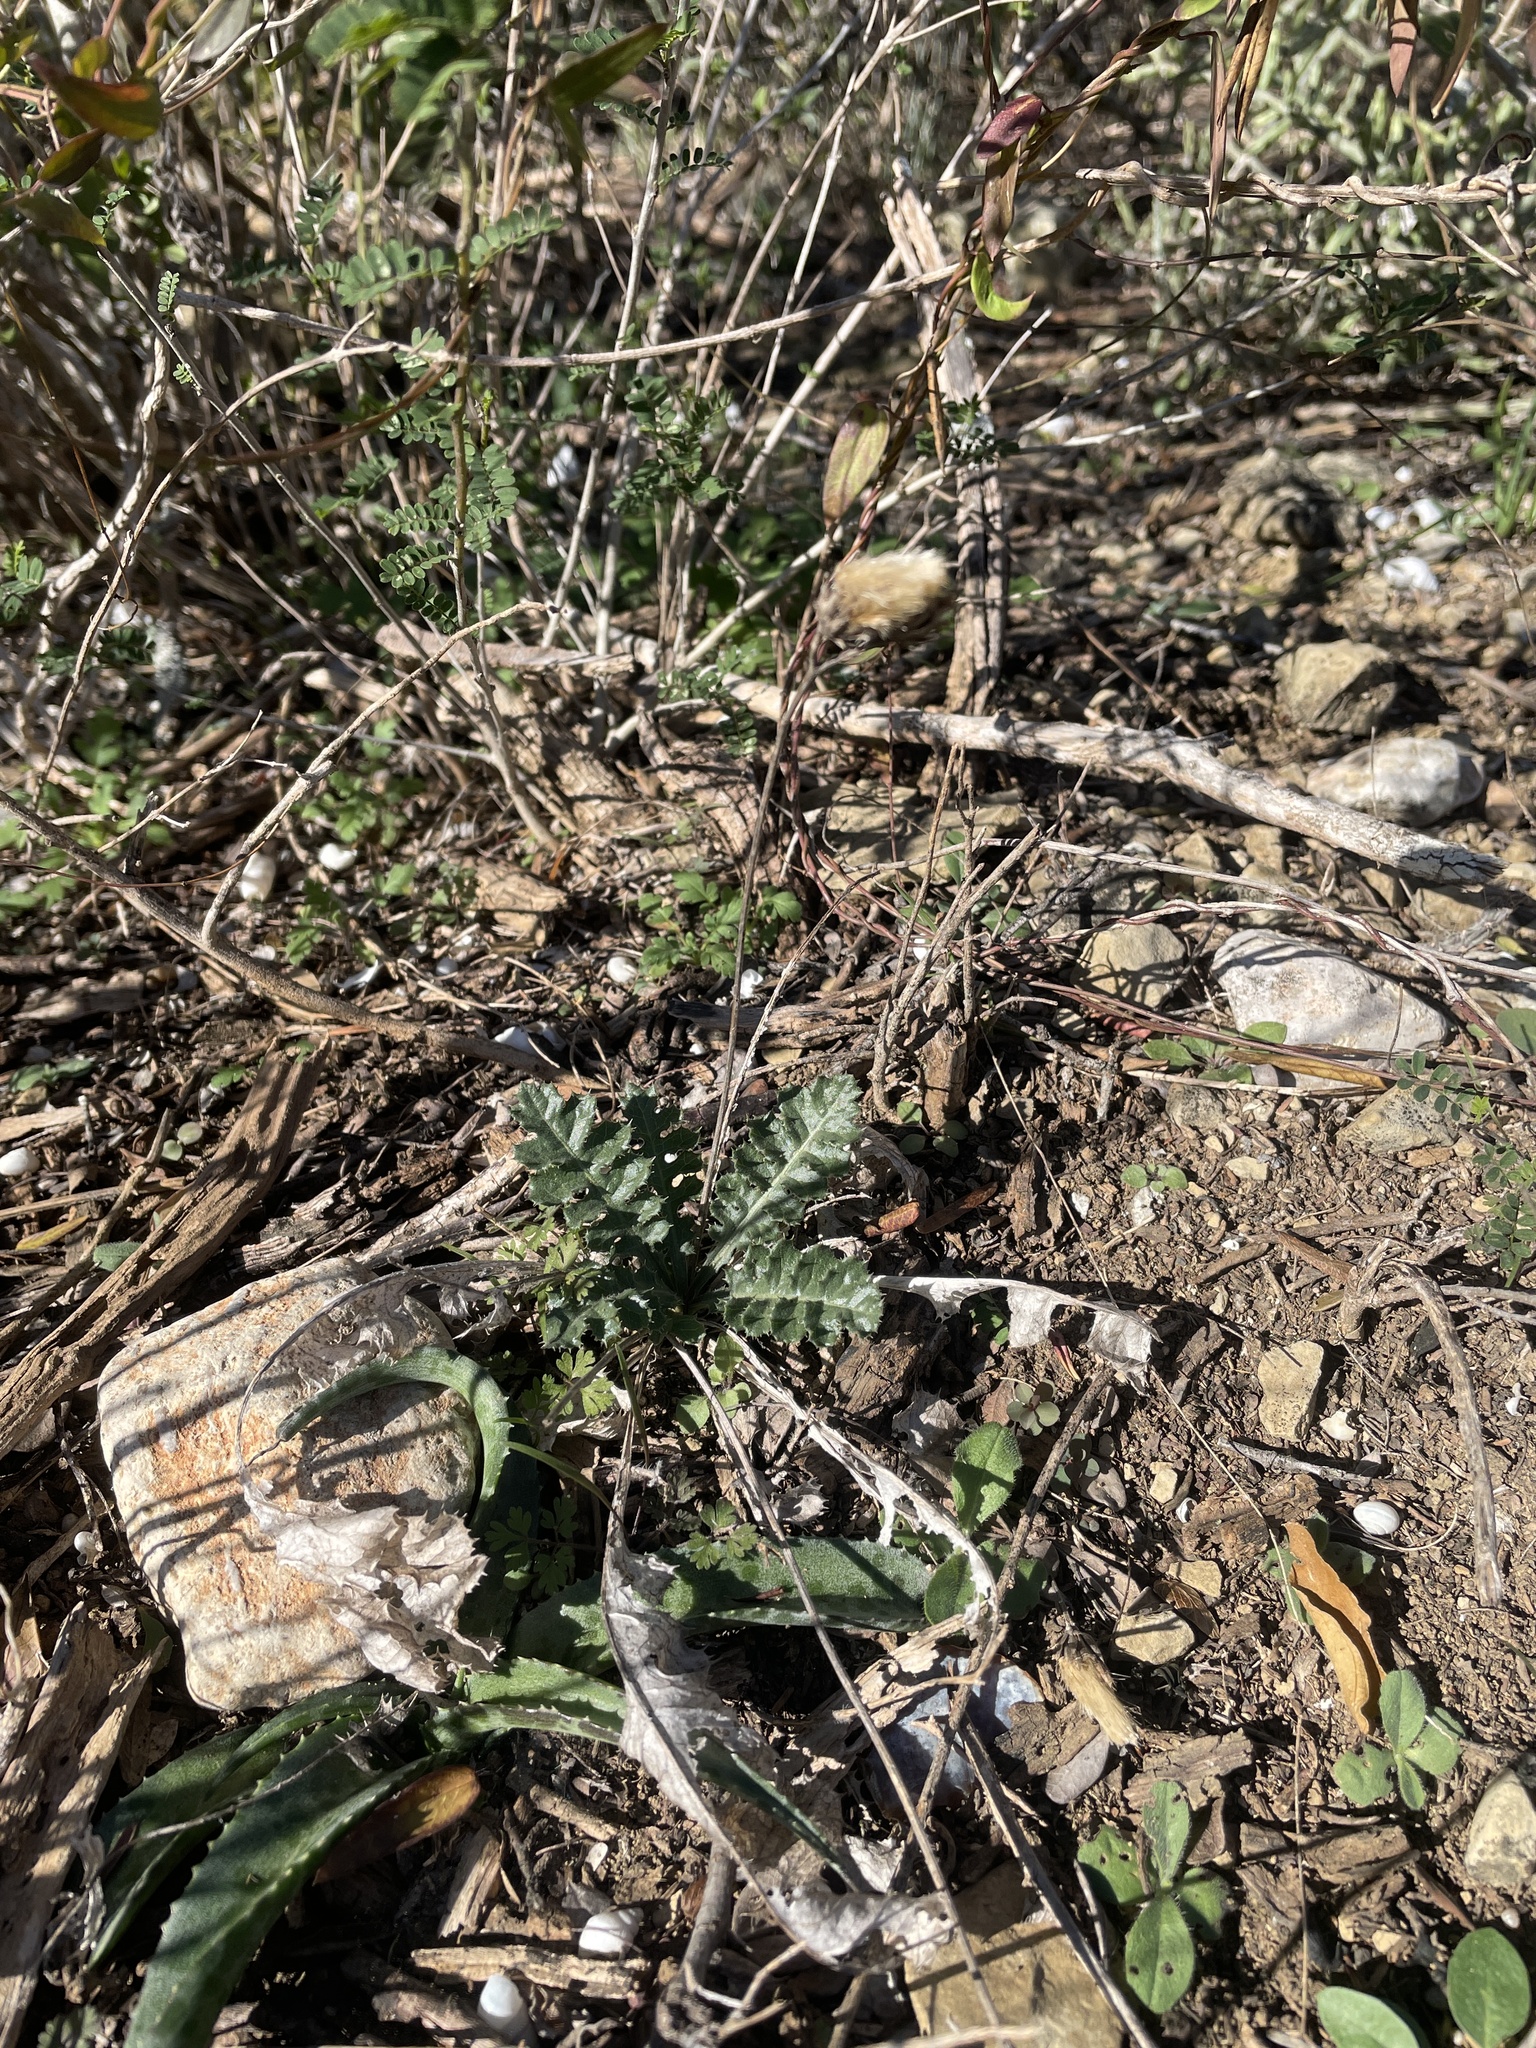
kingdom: Plantae
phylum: Tracheophyta
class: Magnoliopsida
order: Asterales
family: Asteraceae
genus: Acourtia
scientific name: Acourtia runcinata
